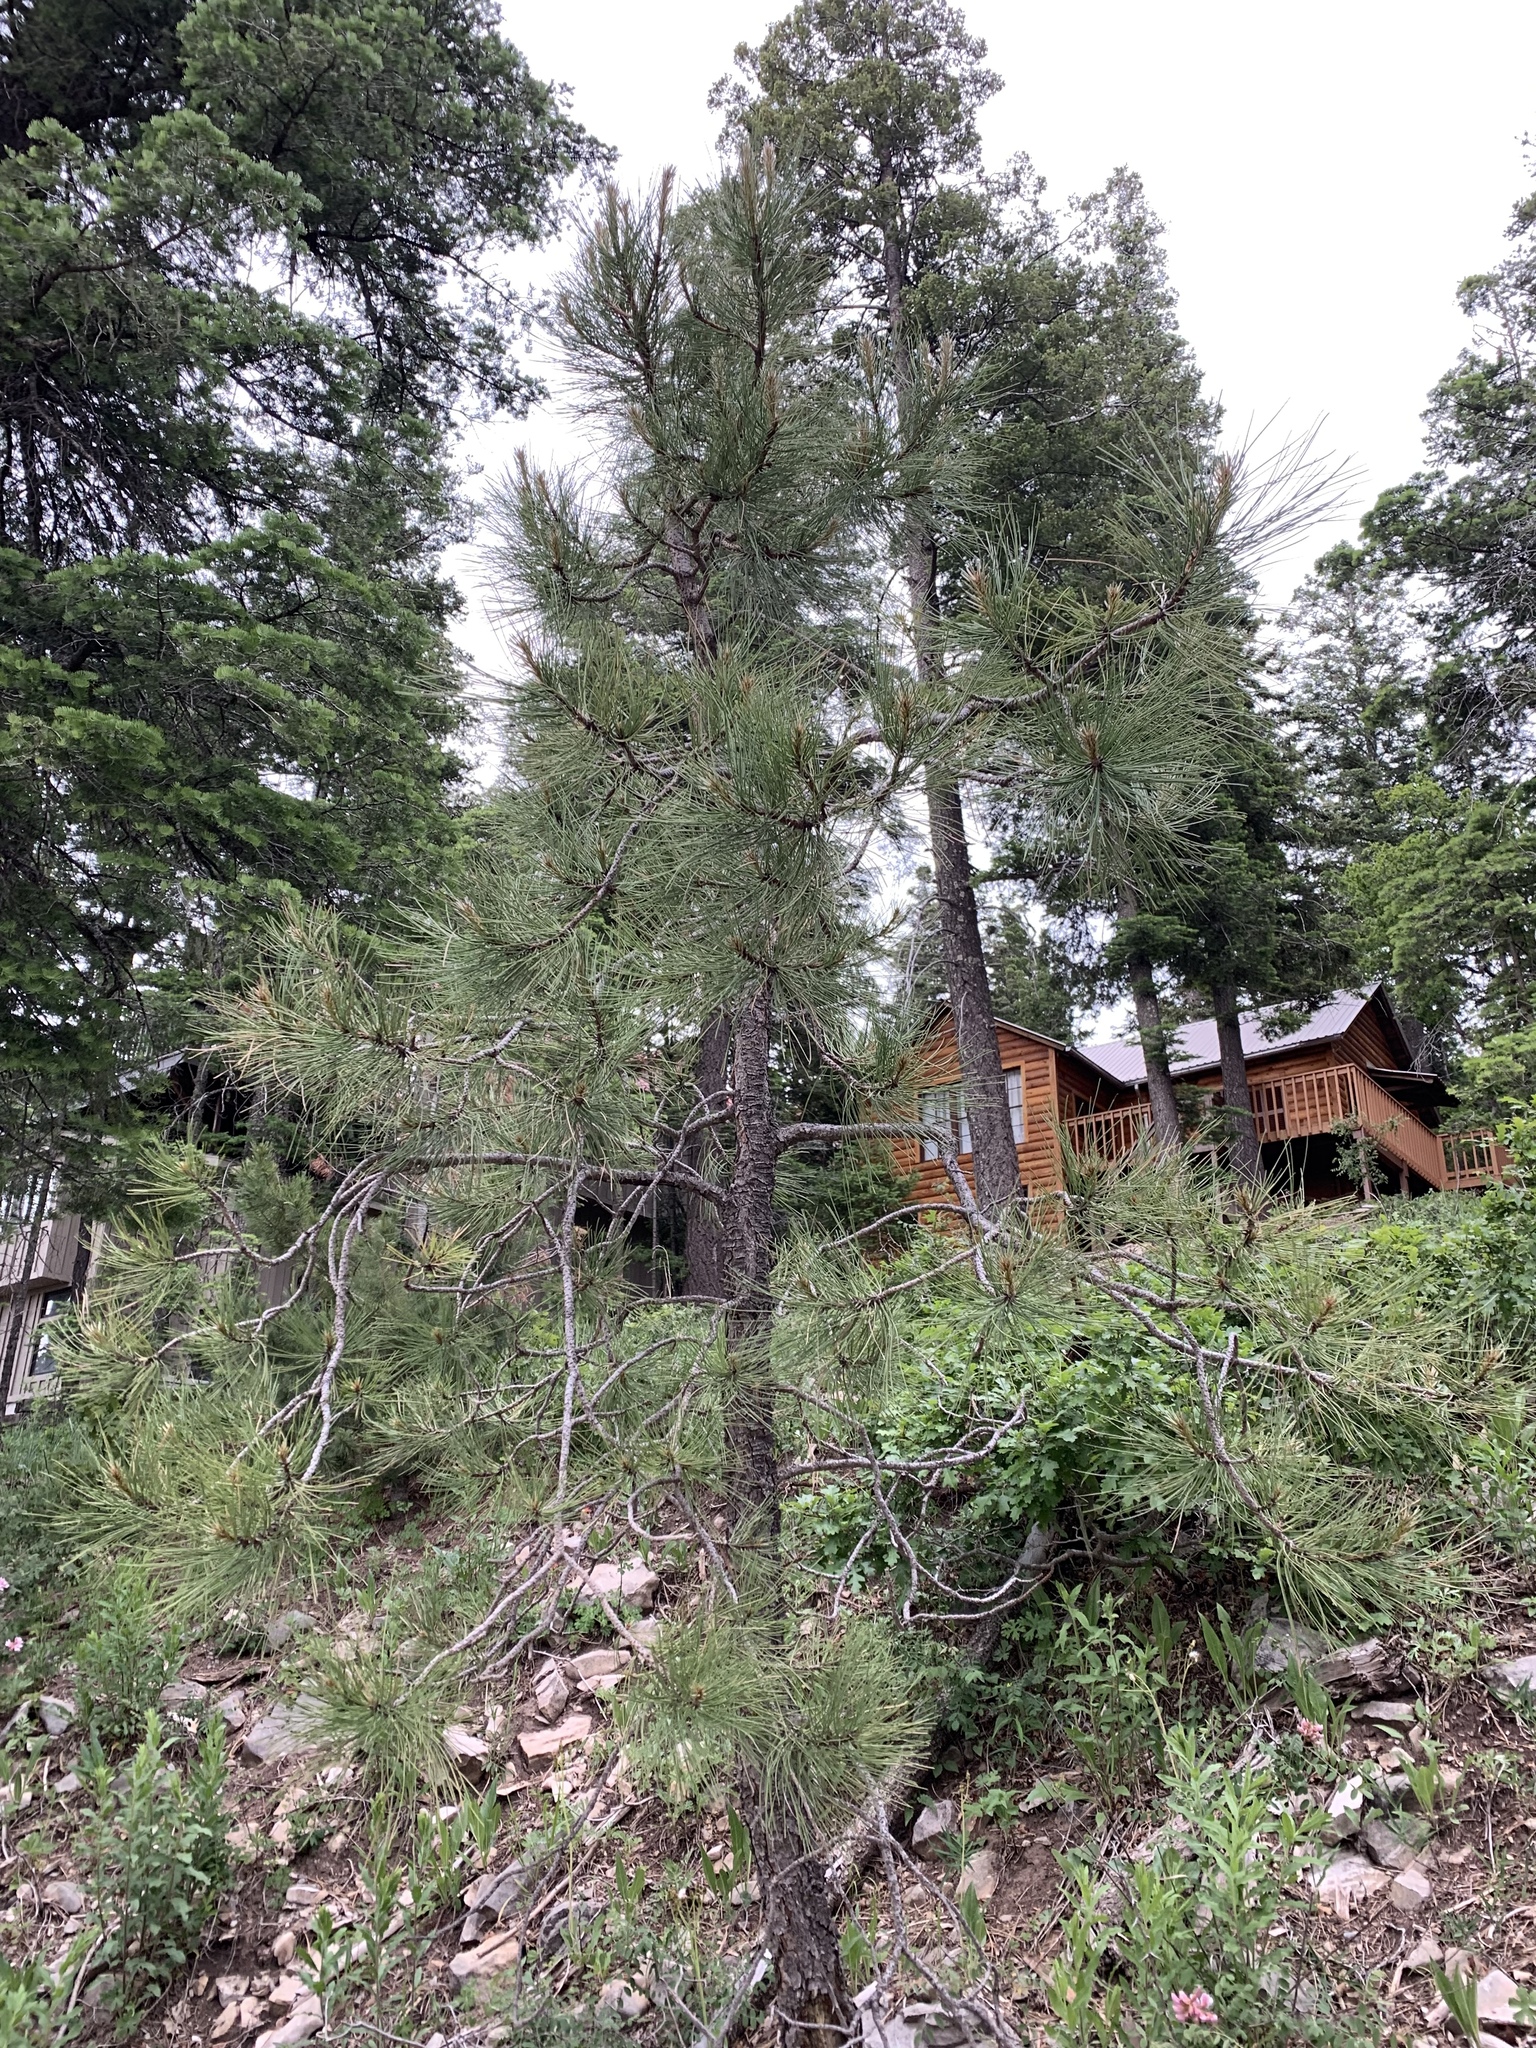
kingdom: Plantae
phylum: Tracheophyta
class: Pinopsida
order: Pinales
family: Pinaceae
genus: Pinus
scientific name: Pinus ponderosa
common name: Western yellow-pine
